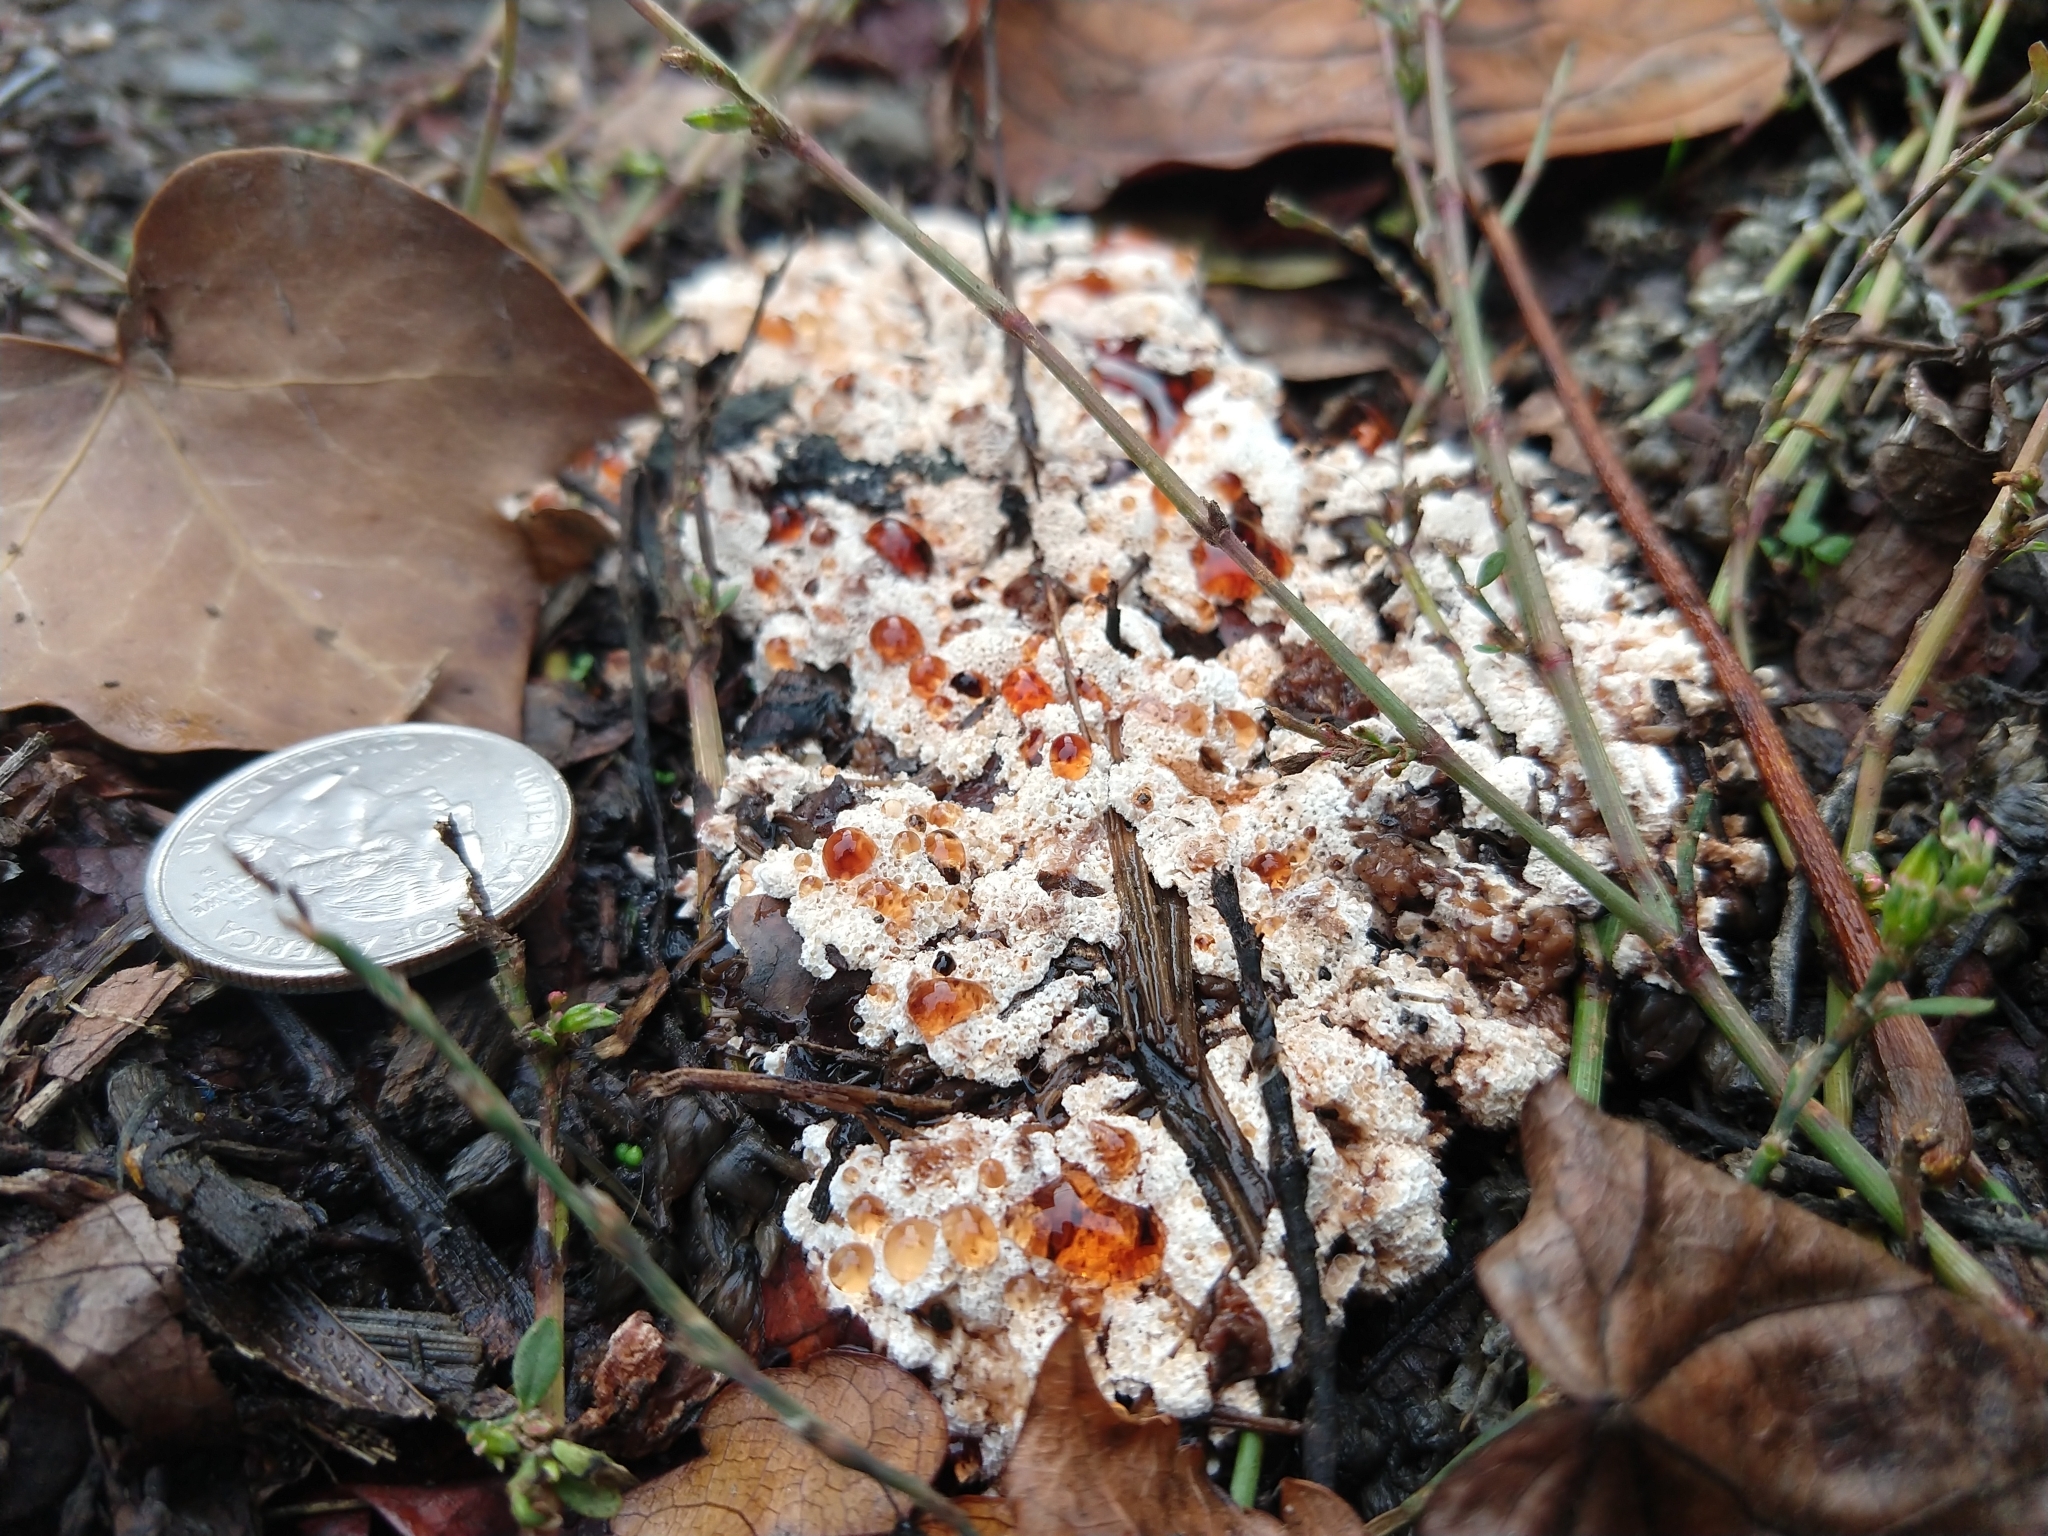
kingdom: Fungi
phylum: Basidiomycota
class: Agaricomycetes
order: Polyporales
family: Podoscyphaceae
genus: Abortiporus
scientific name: Abortiporus biennis
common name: Blushing rosette
